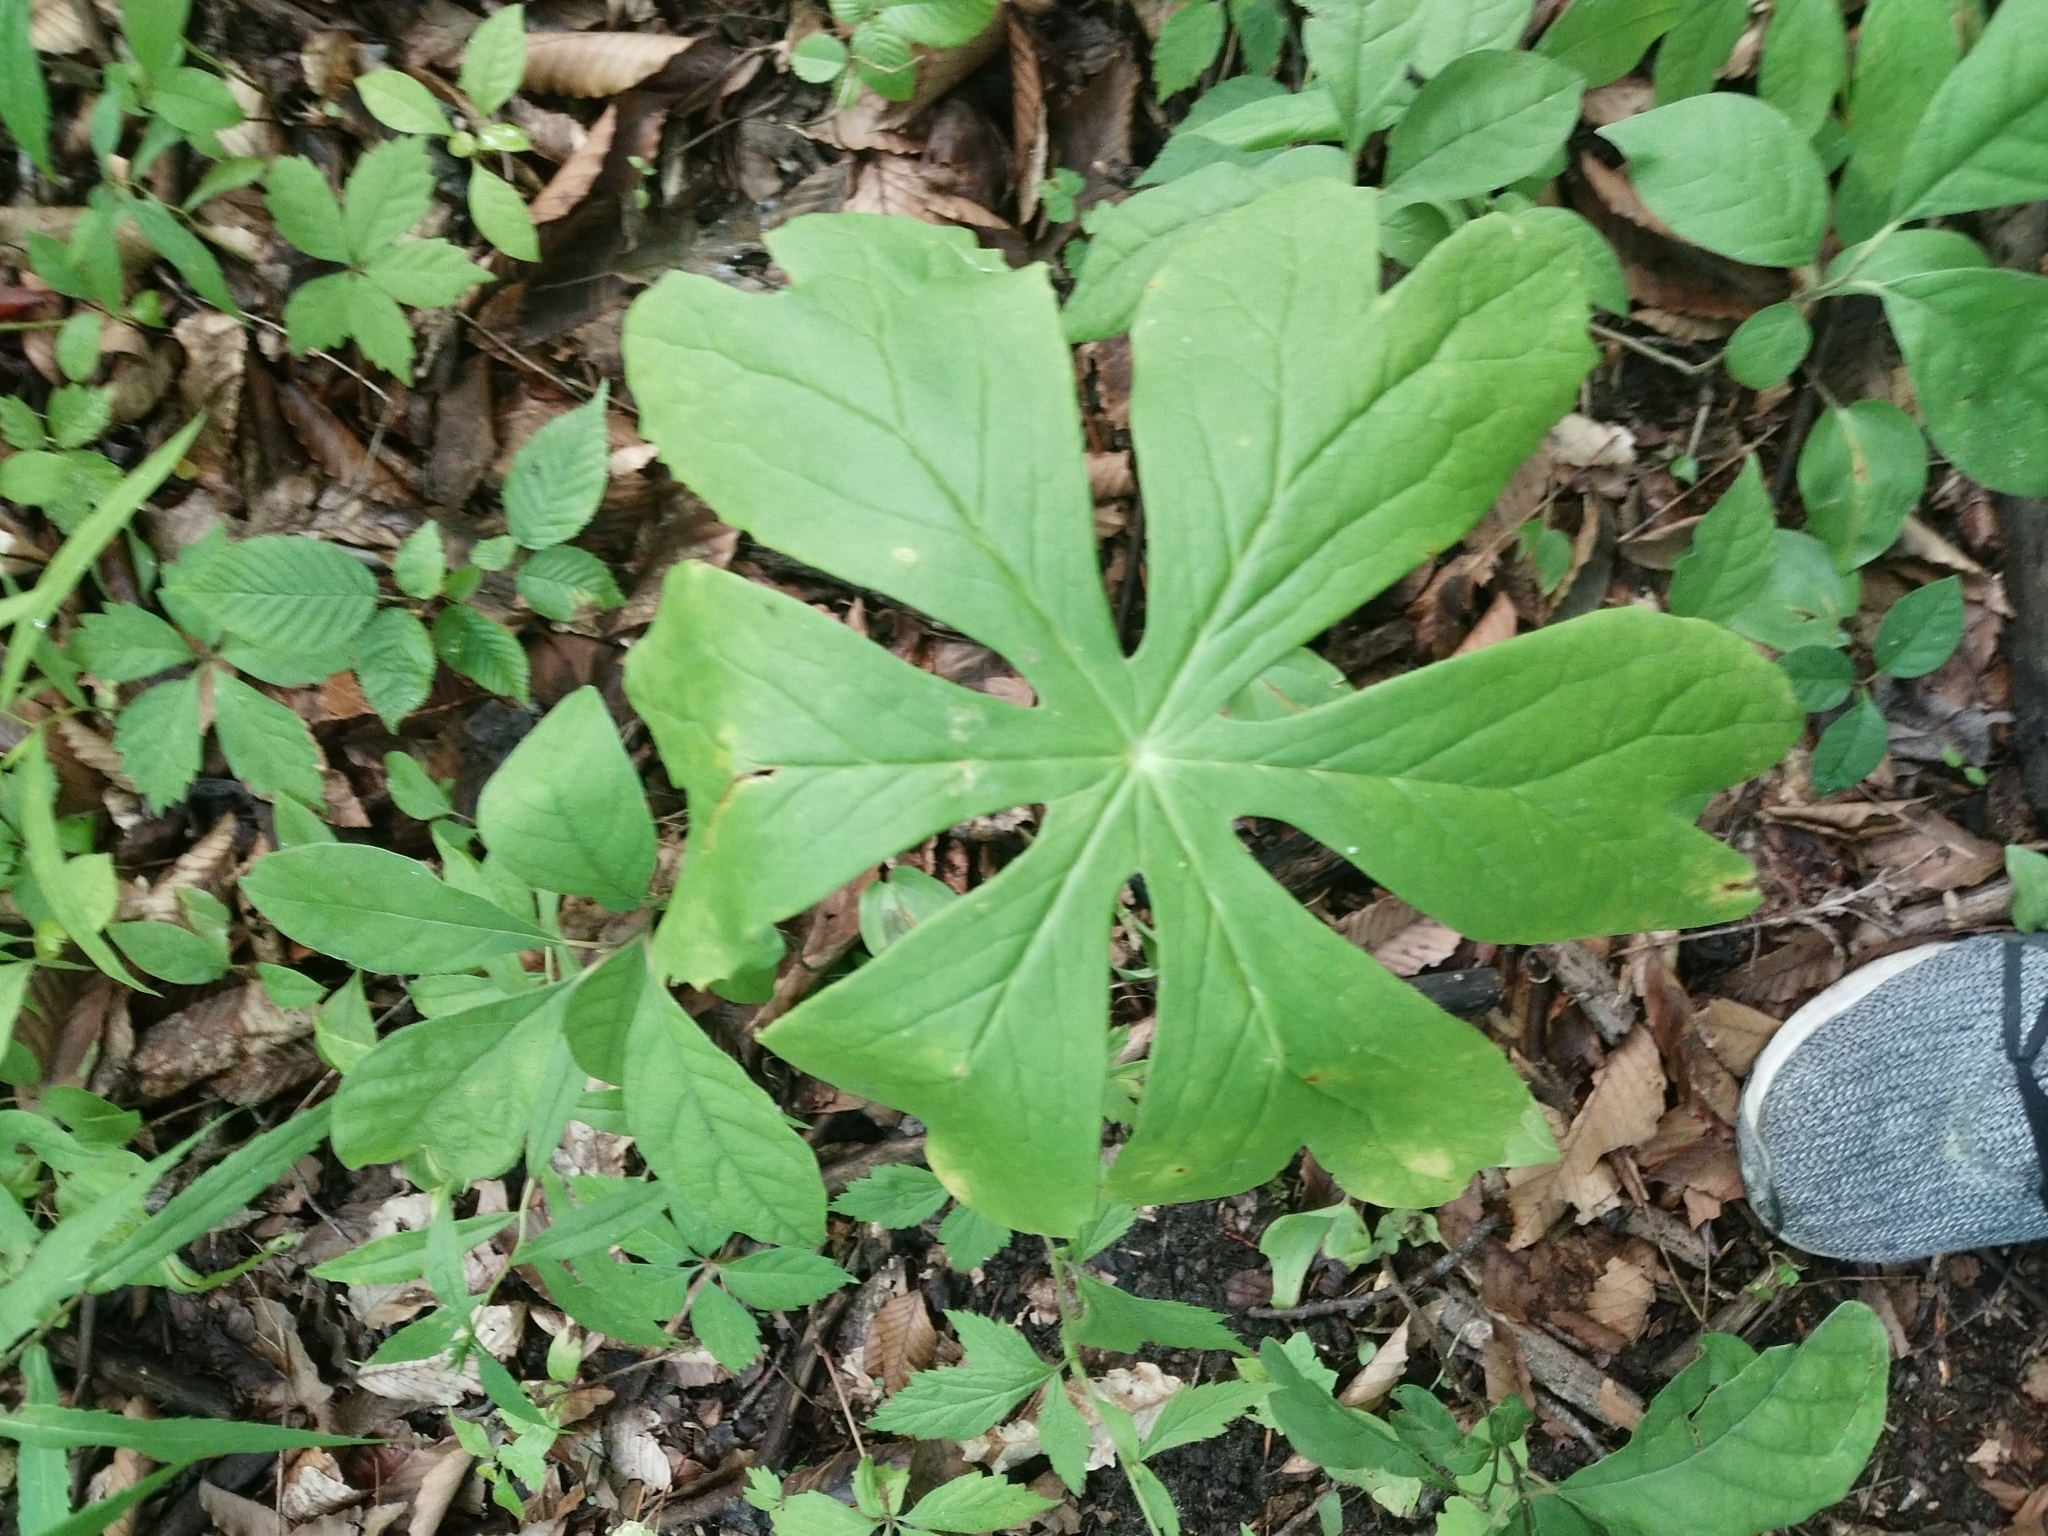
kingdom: Plantae
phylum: Tracheophyta
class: Magnoliopsida
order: Ranunculales
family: Berberidaceae
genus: Podophyllum
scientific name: Podophyllum peltatum
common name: Wild mandrake
